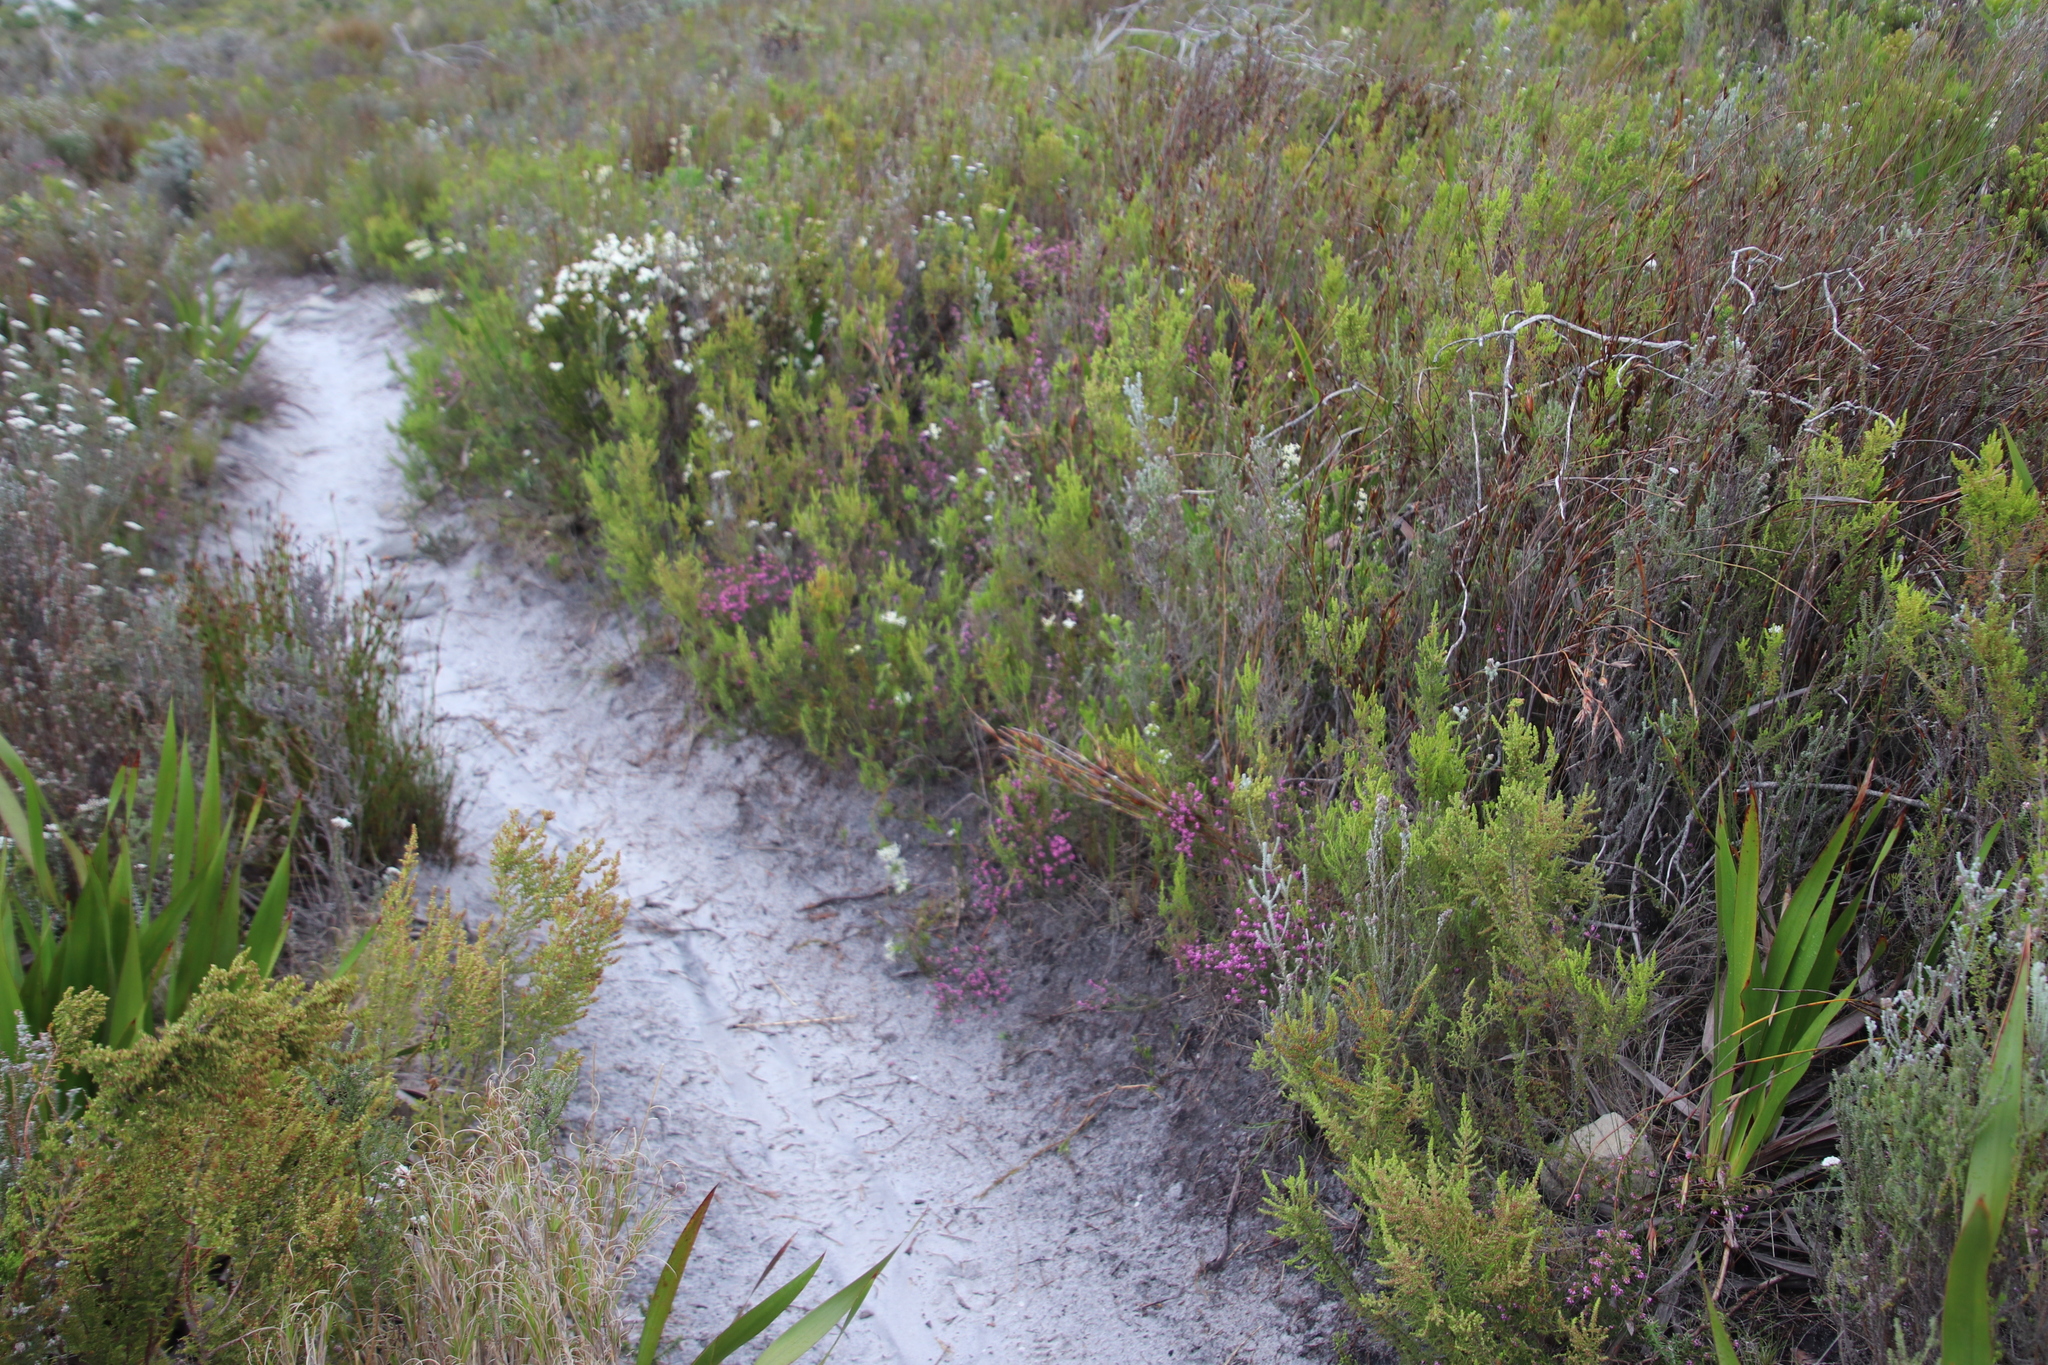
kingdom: Plantae
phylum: Tracheophyta
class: Magnoliopsida
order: Ericales
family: Ericaceae
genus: Erica
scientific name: Erica glabella
